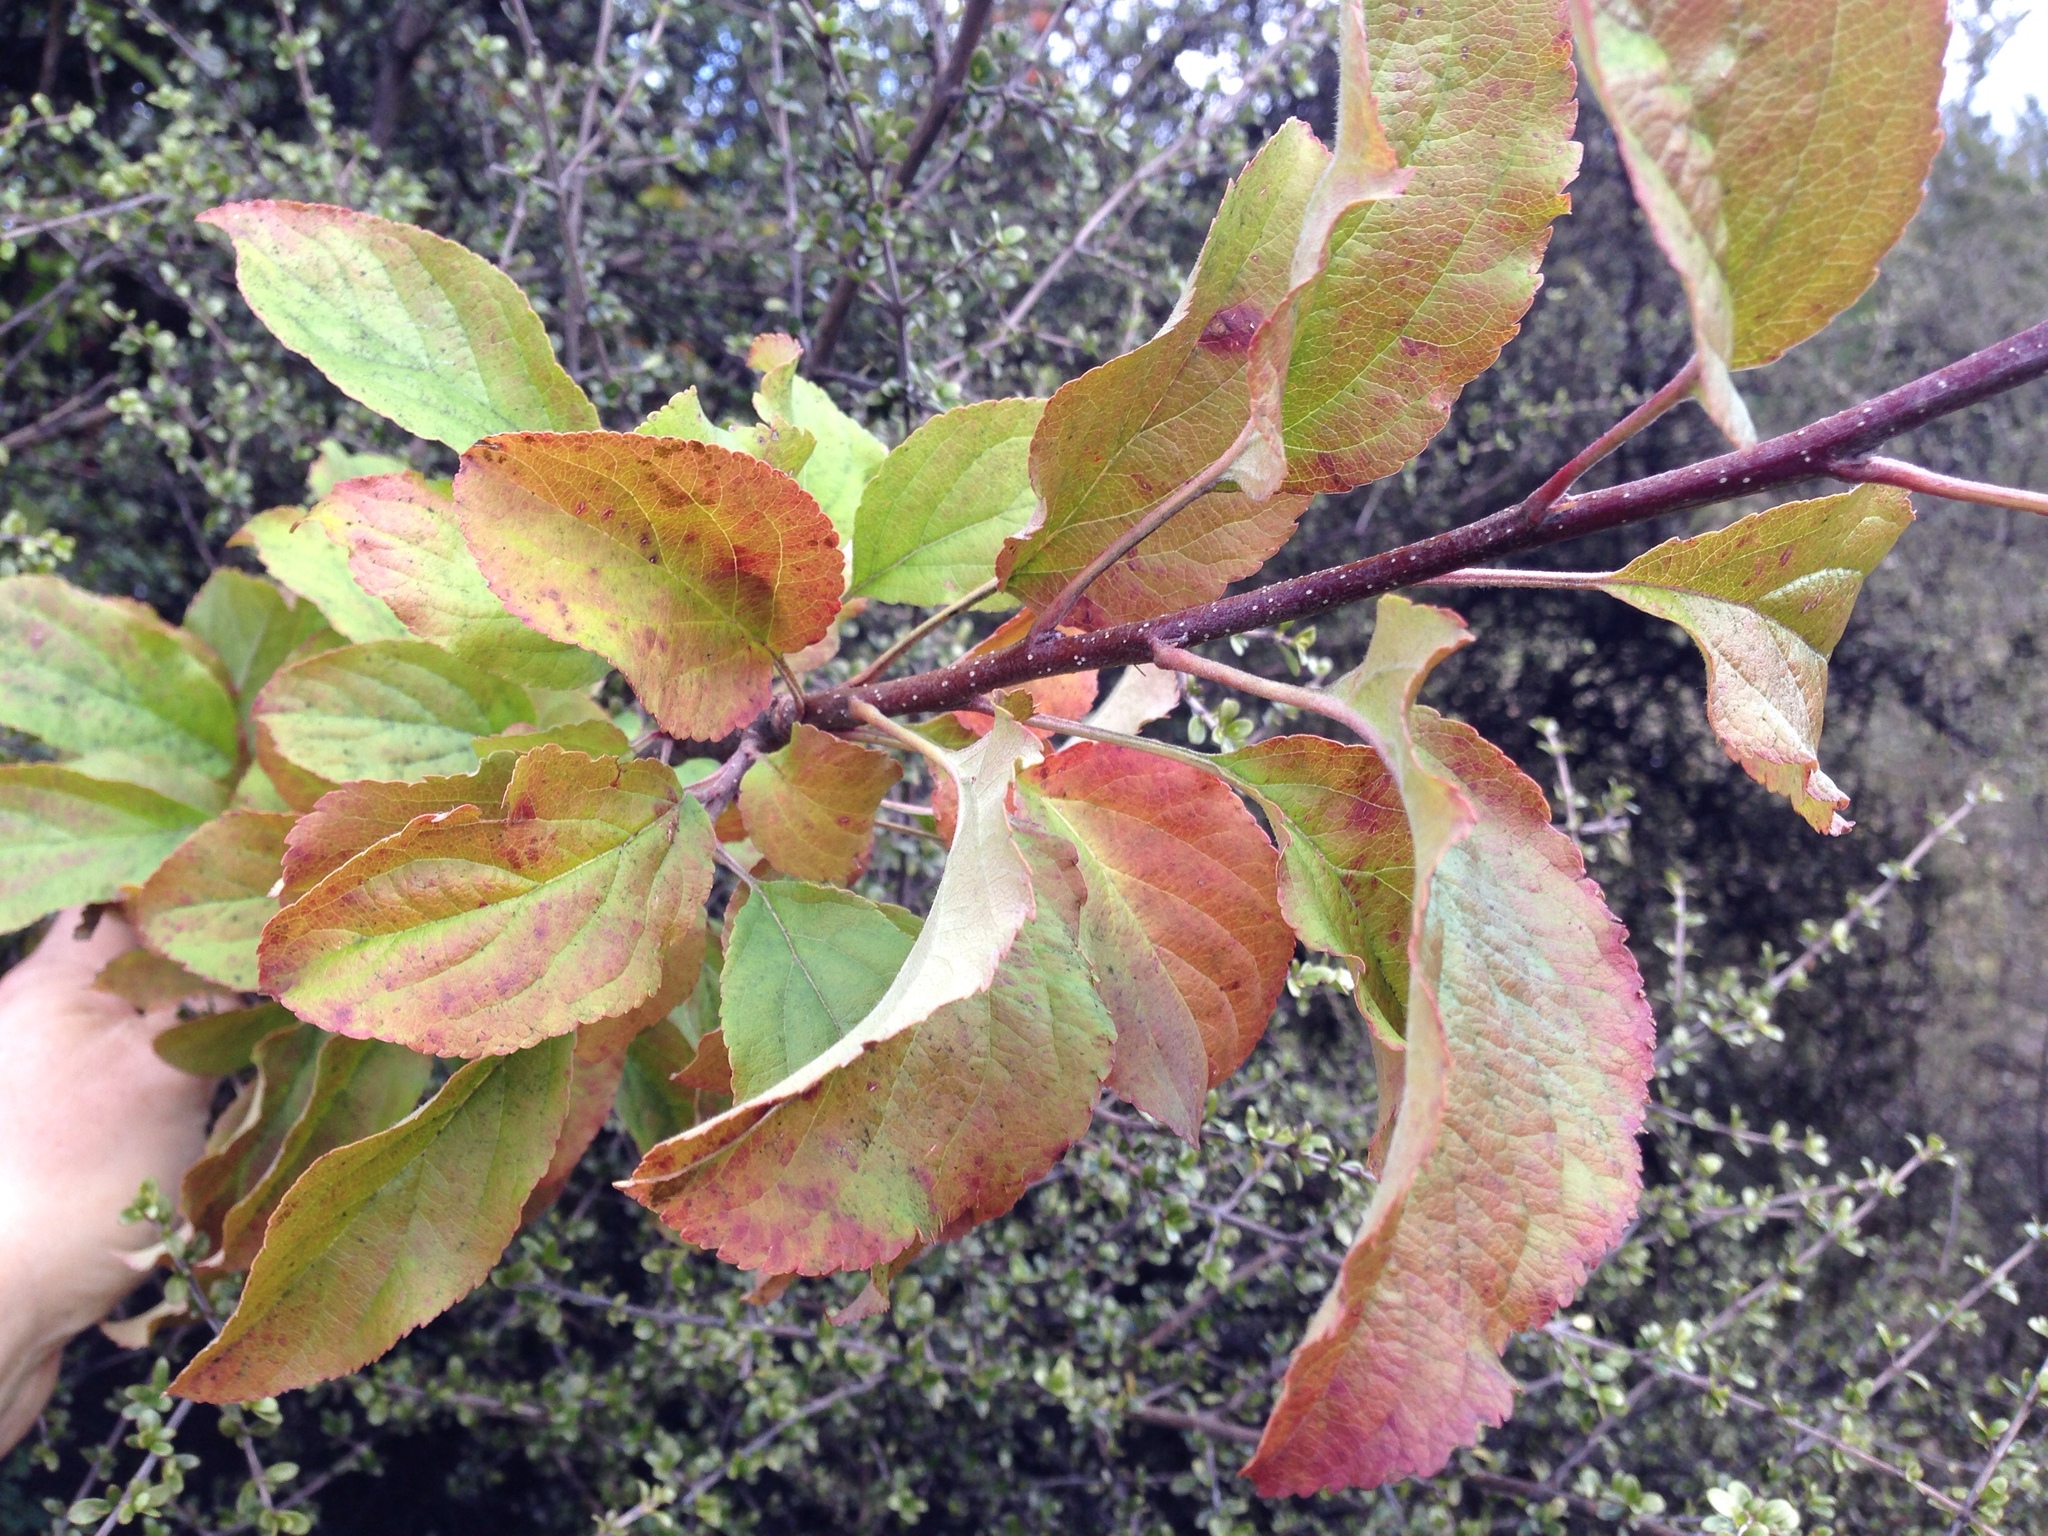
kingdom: Plantae
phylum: Tracheophyta
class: Magnoliopsida
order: Rosales
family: Rosaceae
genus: Malus
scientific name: Malus domestica
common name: Apple
